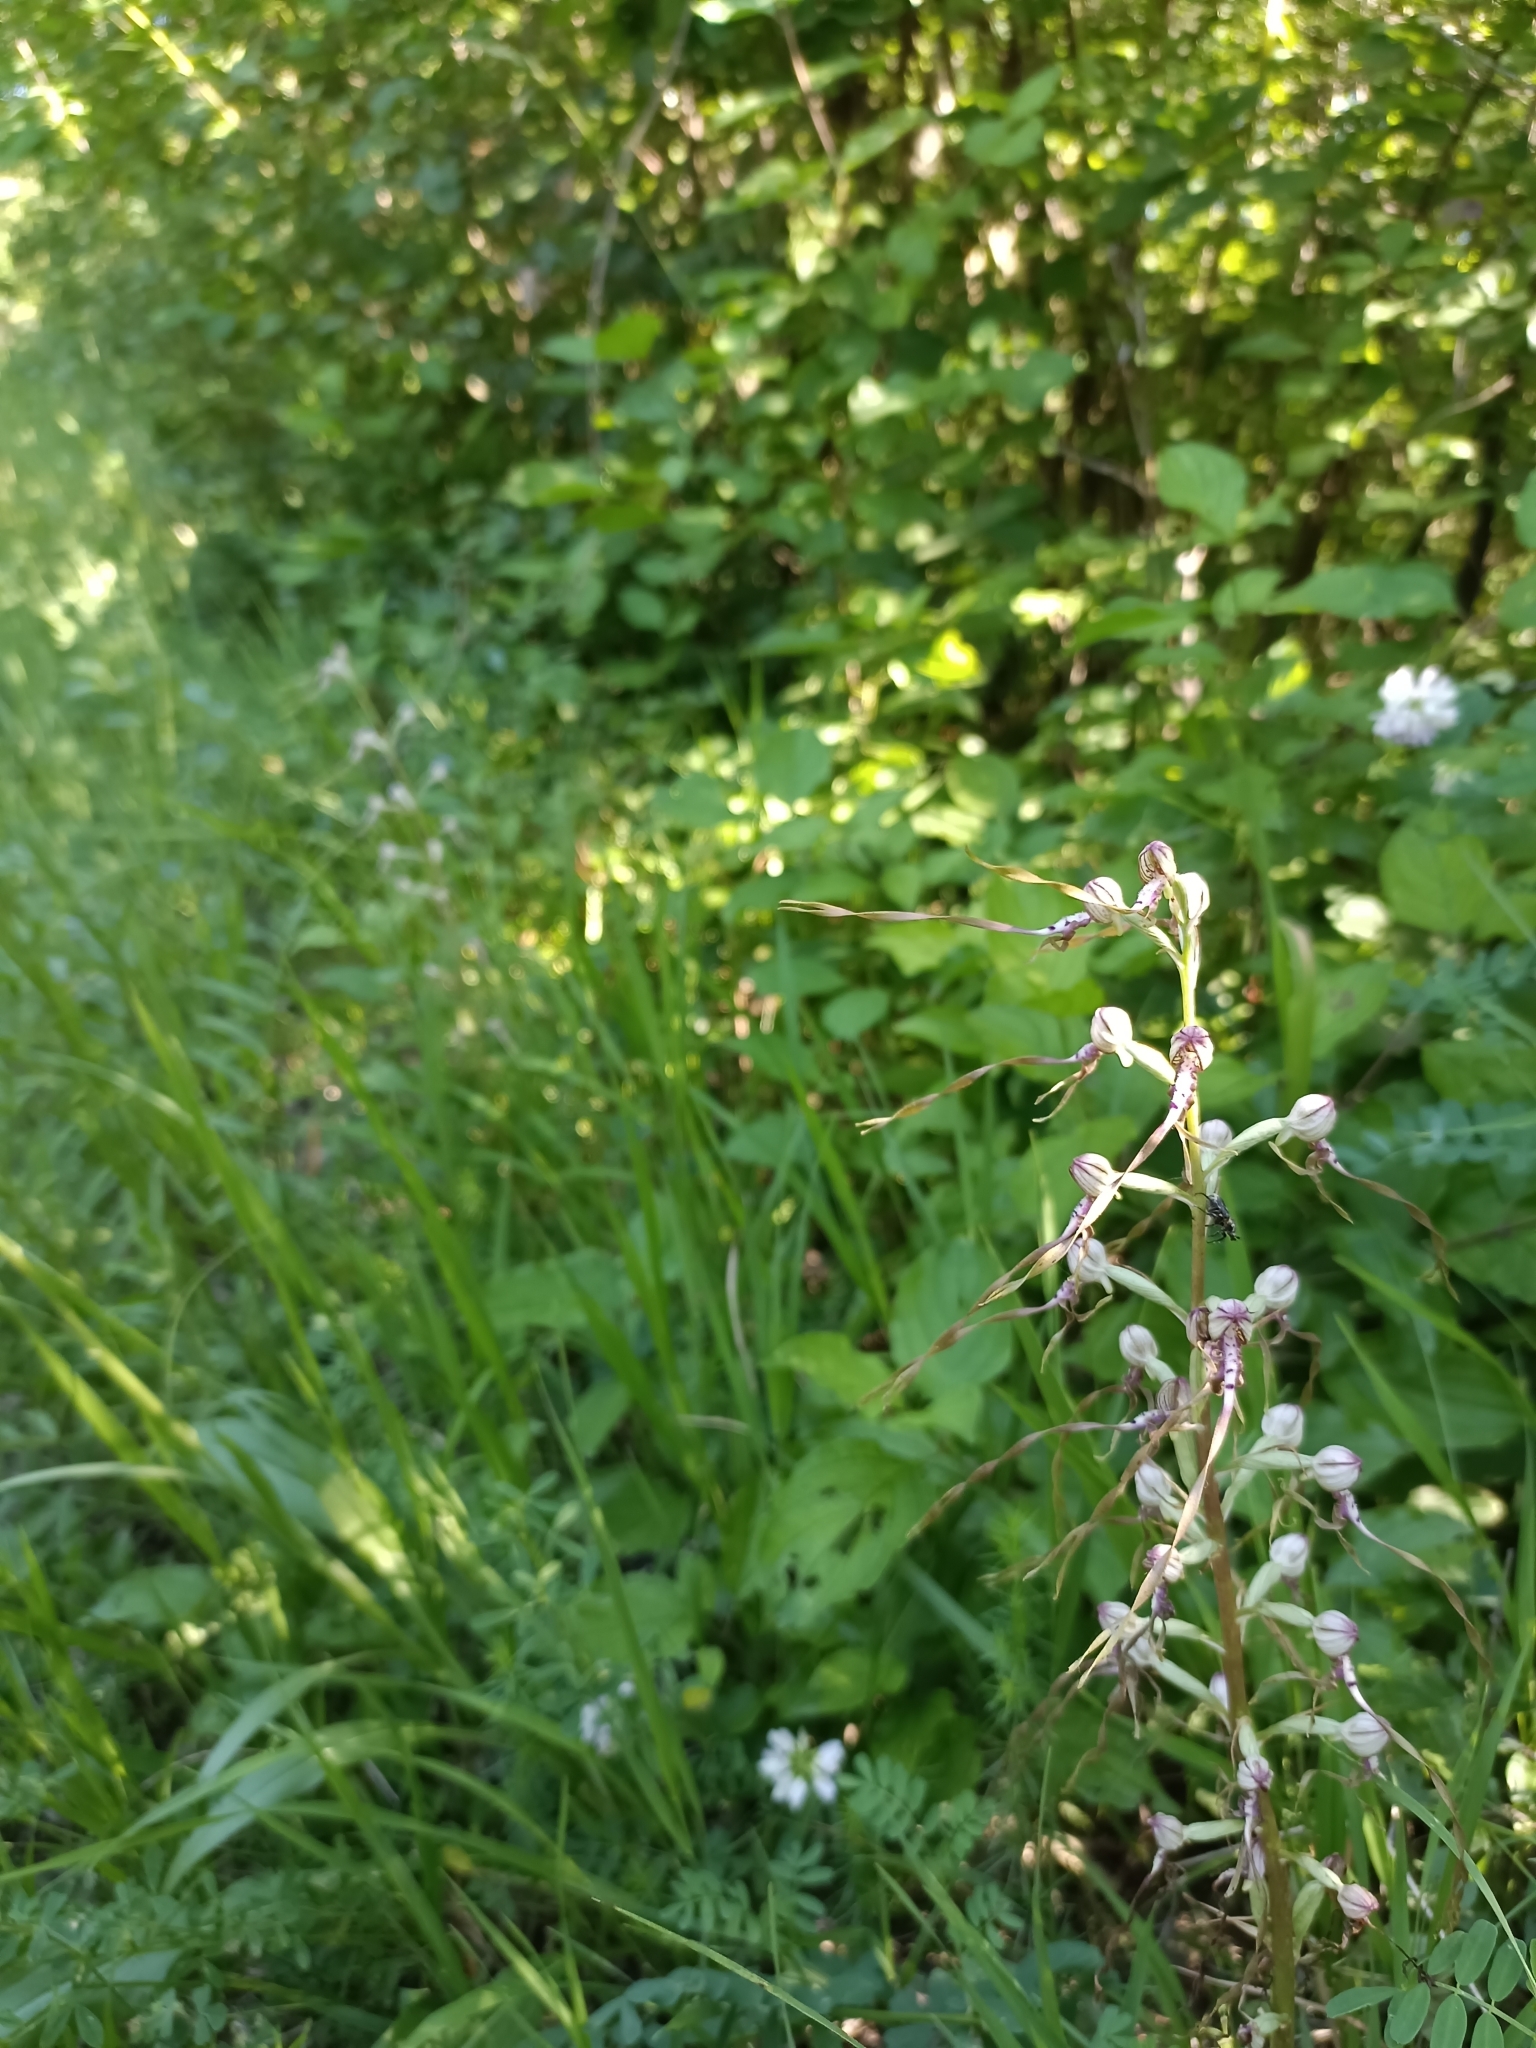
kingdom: Plantae
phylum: Tracheophyta
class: Liliopsida
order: Asparagales
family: Orchidaceae
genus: Himantoglossum
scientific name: Himantoglossum adriaticum
